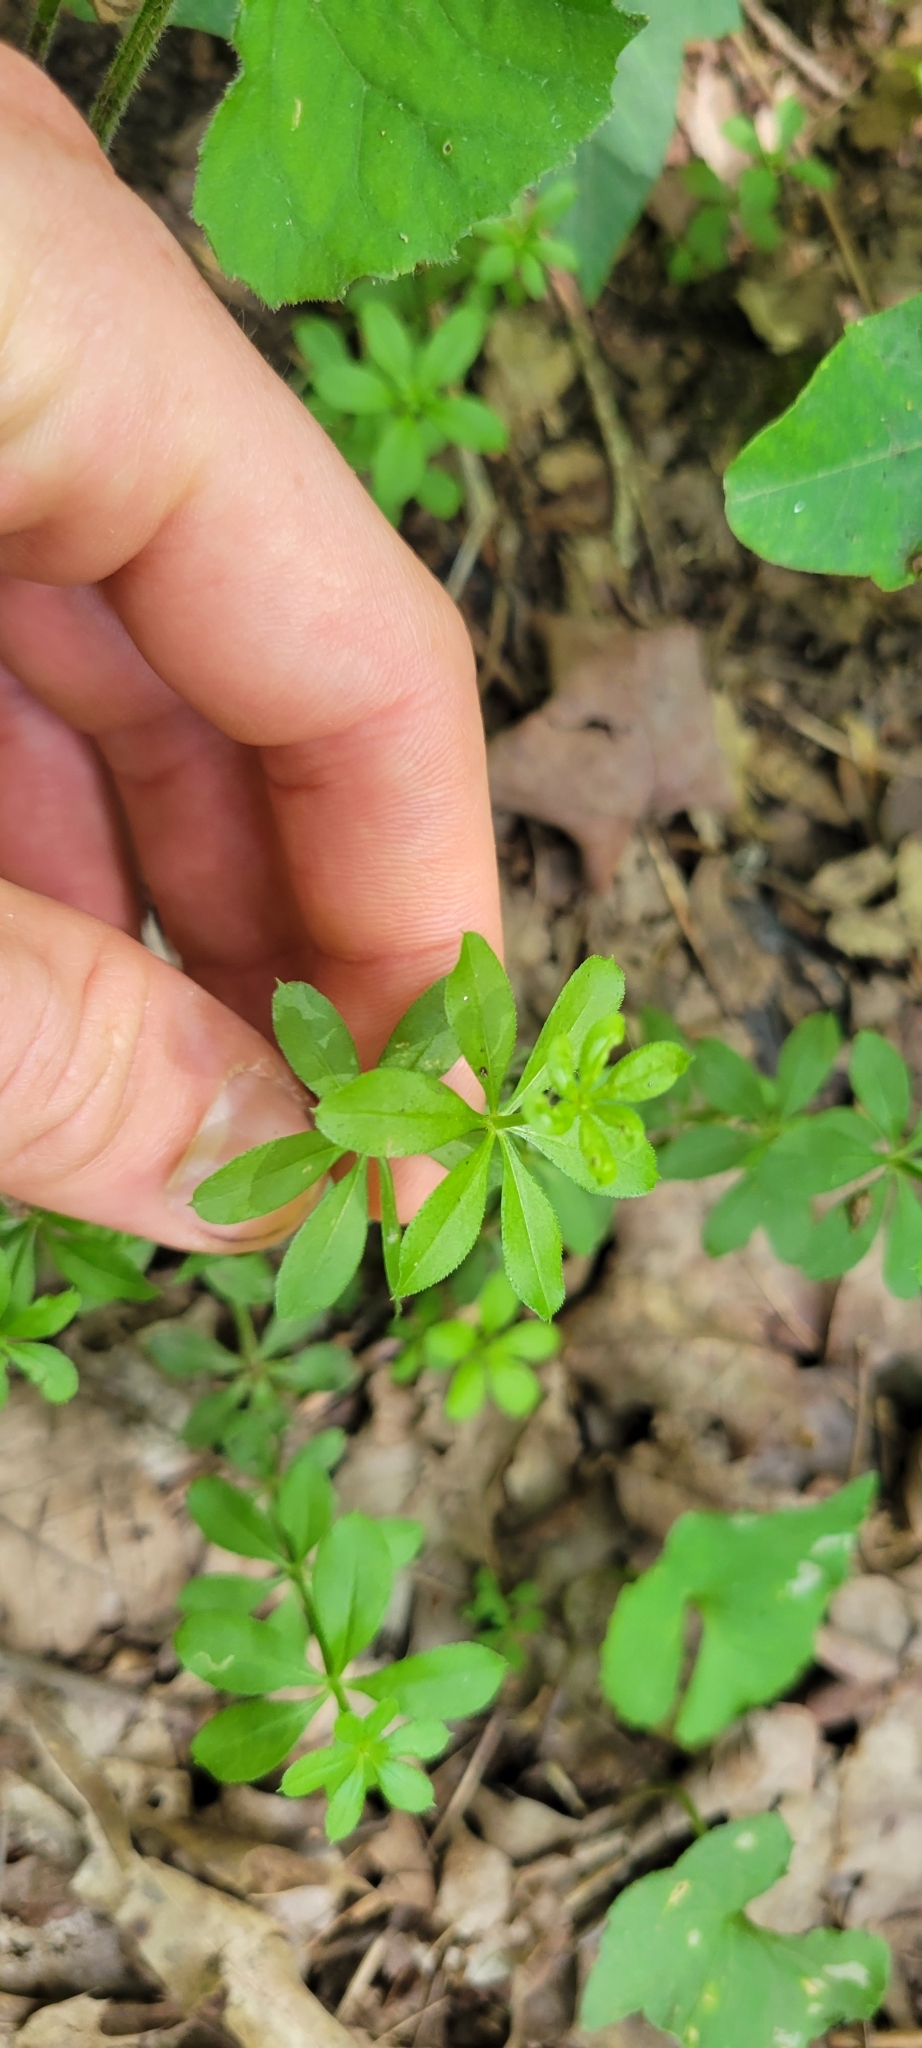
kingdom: Plantae
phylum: Tracheophyta
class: Magnoliopsida
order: Gentianales
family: Rubiaceae
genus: Galium
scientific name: Galium triflorum
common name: Fragrant bedstraw
